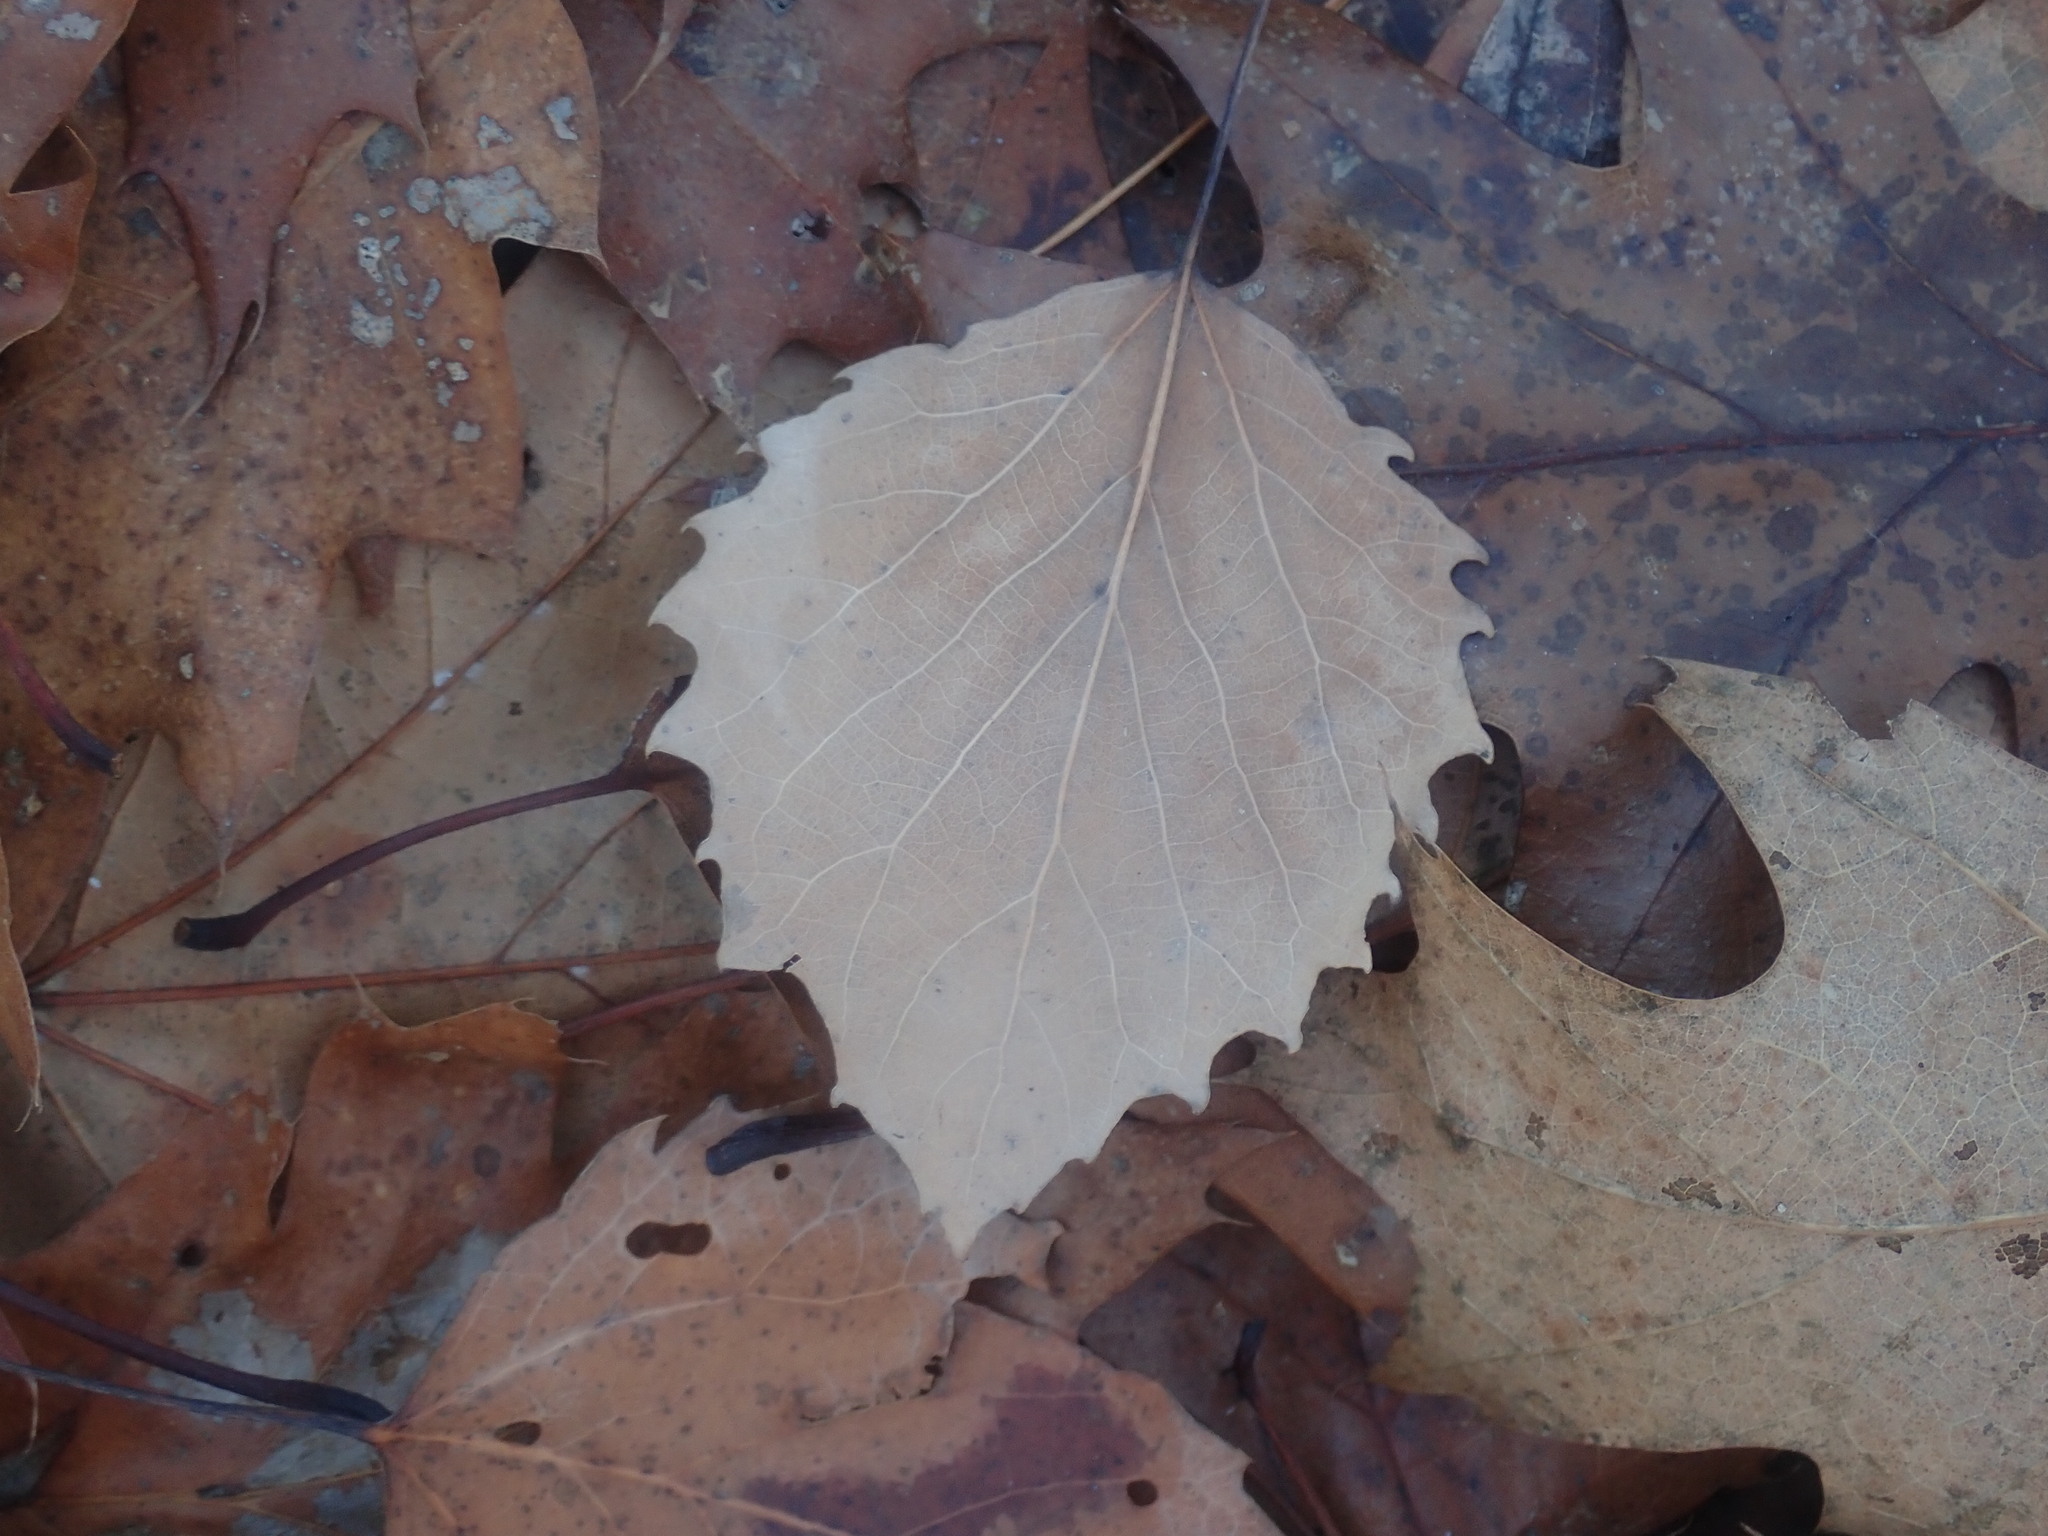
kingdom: Plantae
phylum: Tracheophyta
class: Magnoliopsida
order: Malpighiales
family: Salicaceae
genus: Populus
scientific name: Populus grandidentata
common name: Bigtooth aspen
